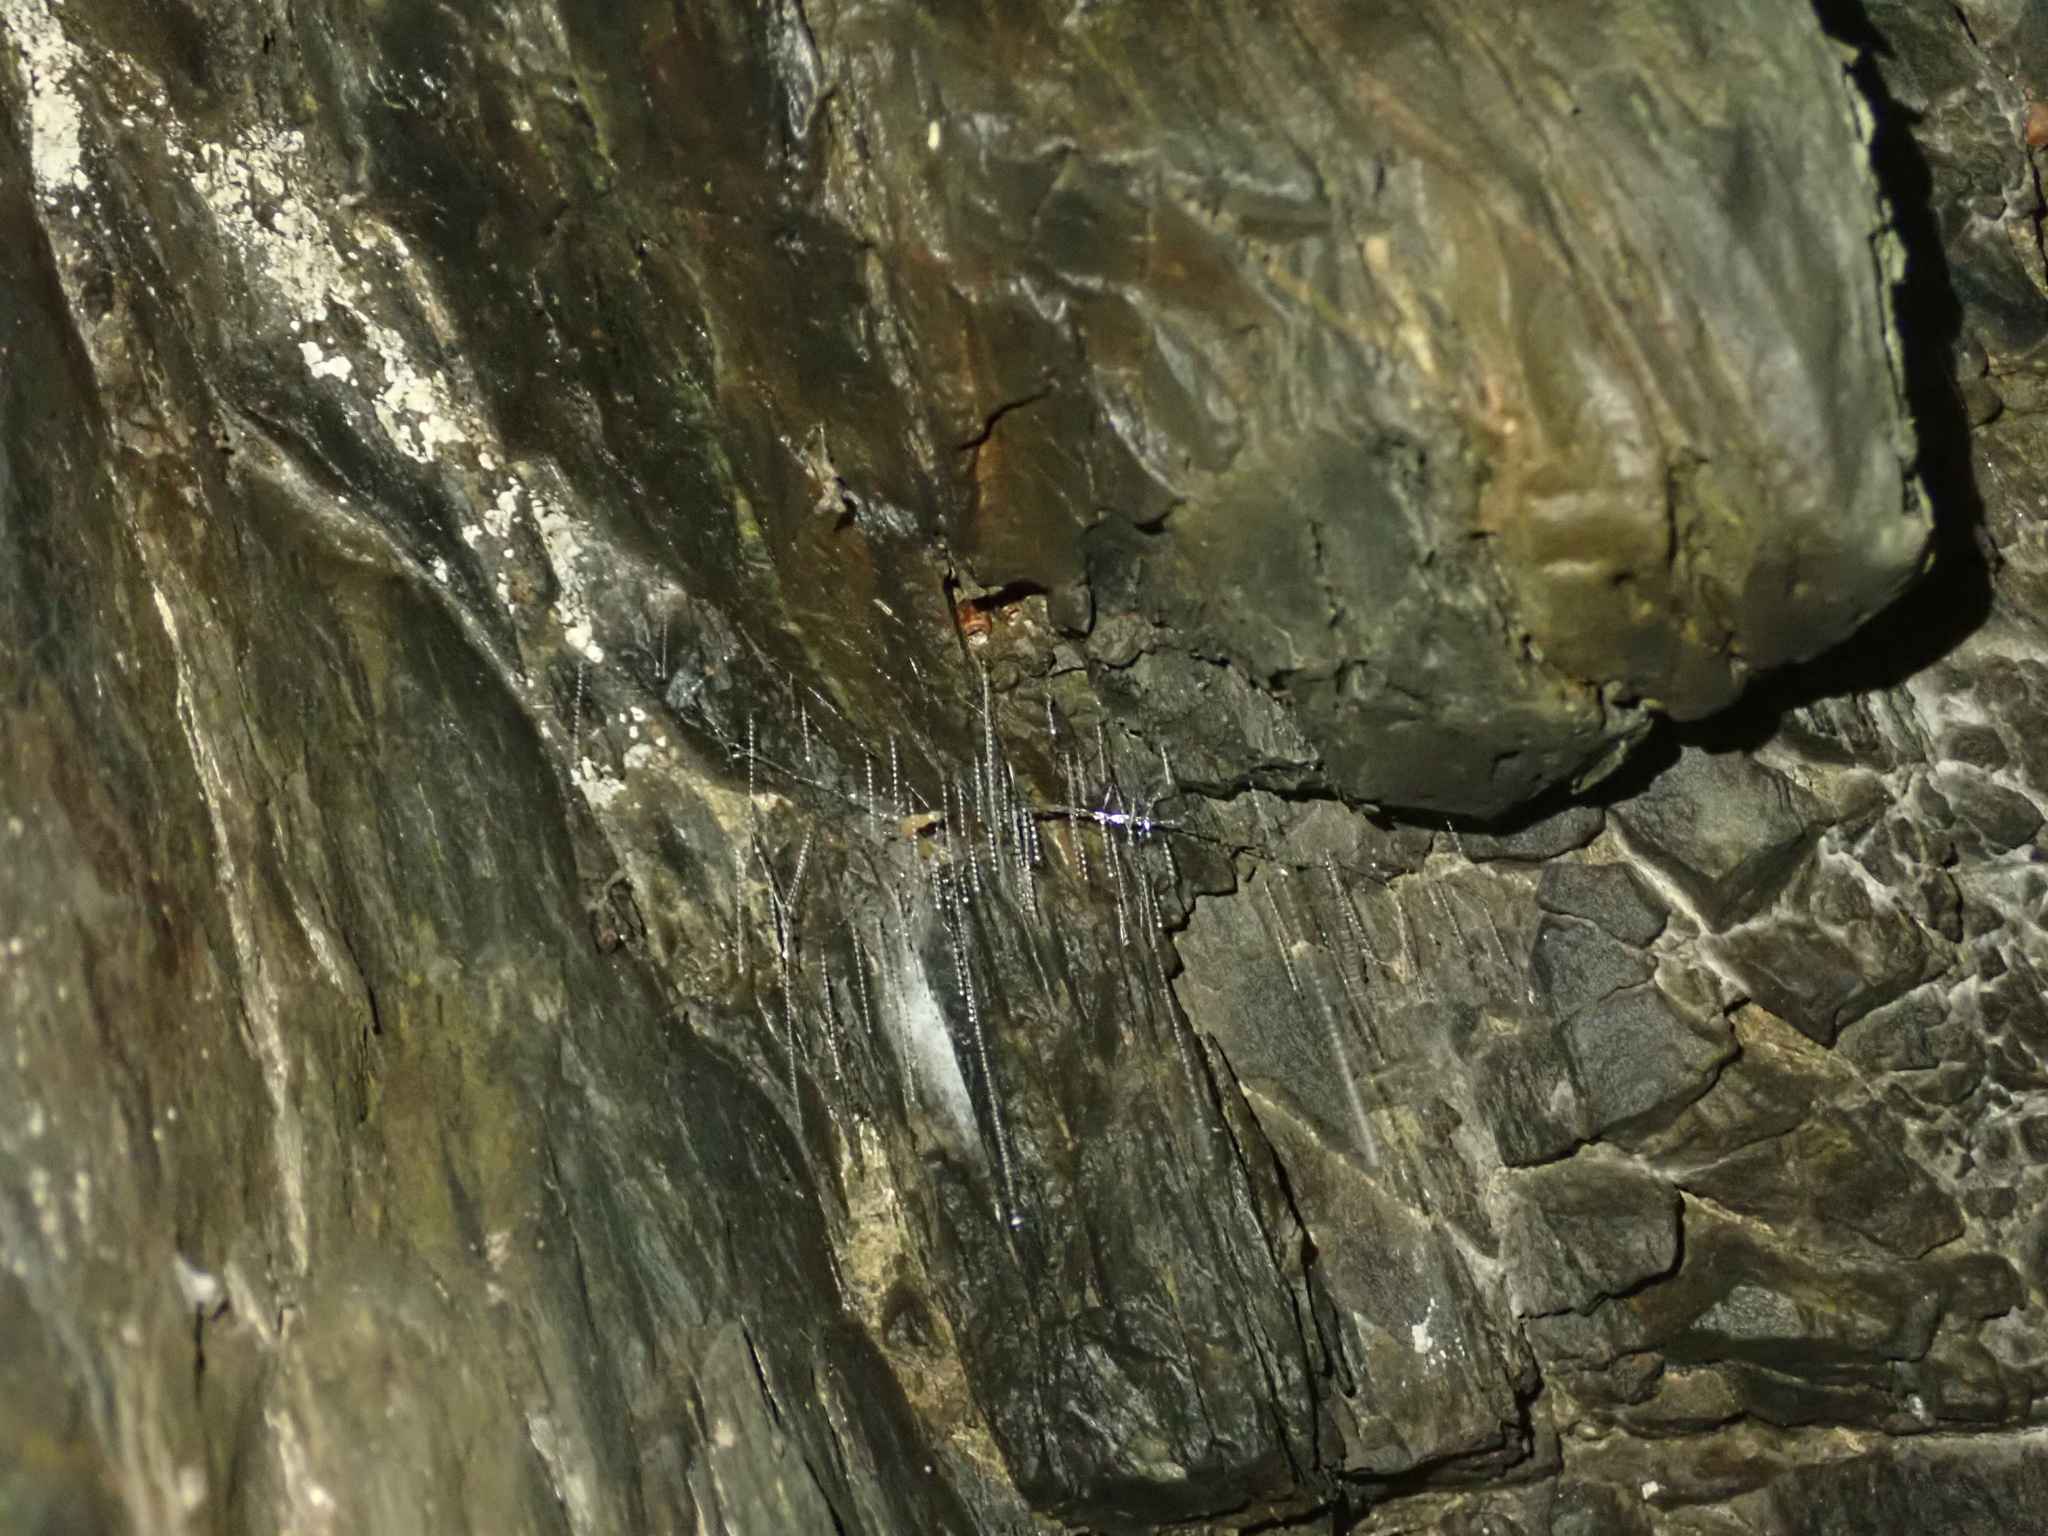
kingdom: Animalia
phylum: Arthropoda
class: Insecta
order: Diptera
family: Keroplatidae
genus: Arachnocampa
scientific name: Arachnocampa luminosa
